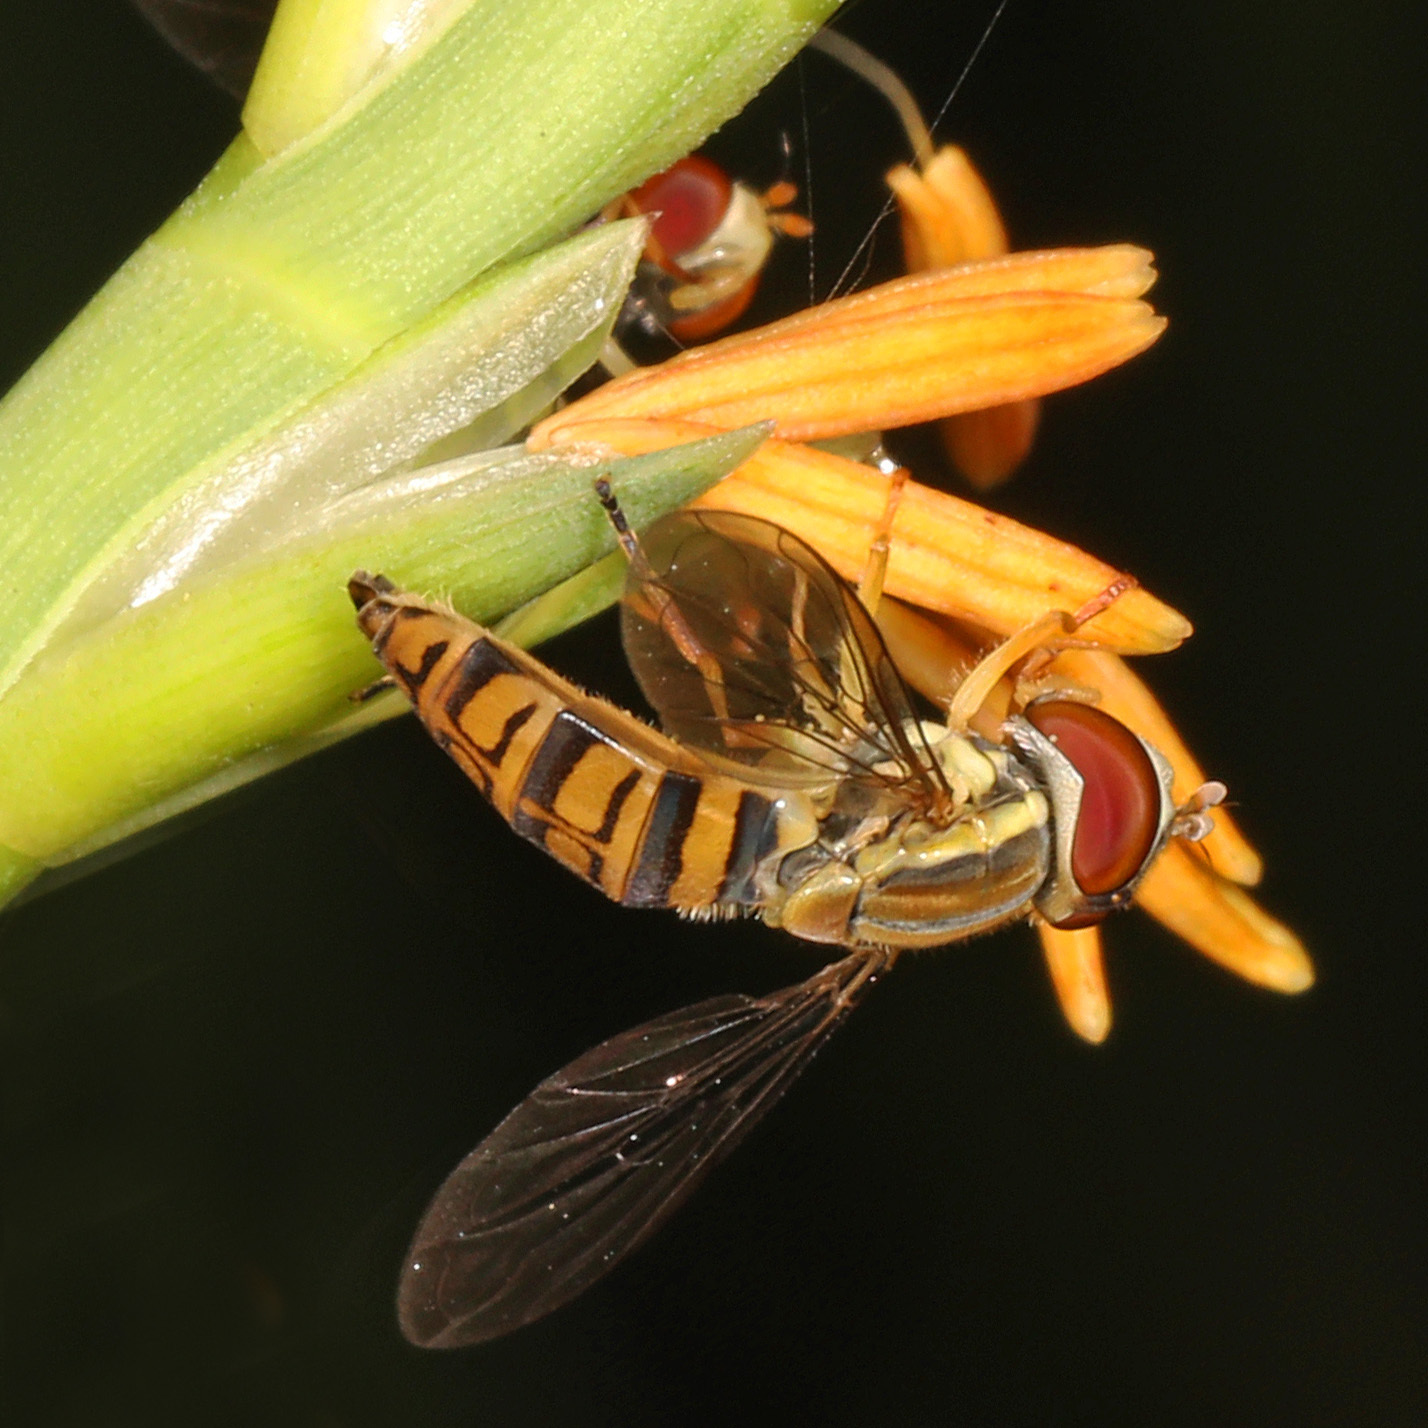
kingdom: Animalia
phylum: Arthropoda
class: Insecta
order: Diptera
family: Syrphidae
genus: Toxomerus
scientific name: Toxomerus politus
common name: Maize calligrapher
